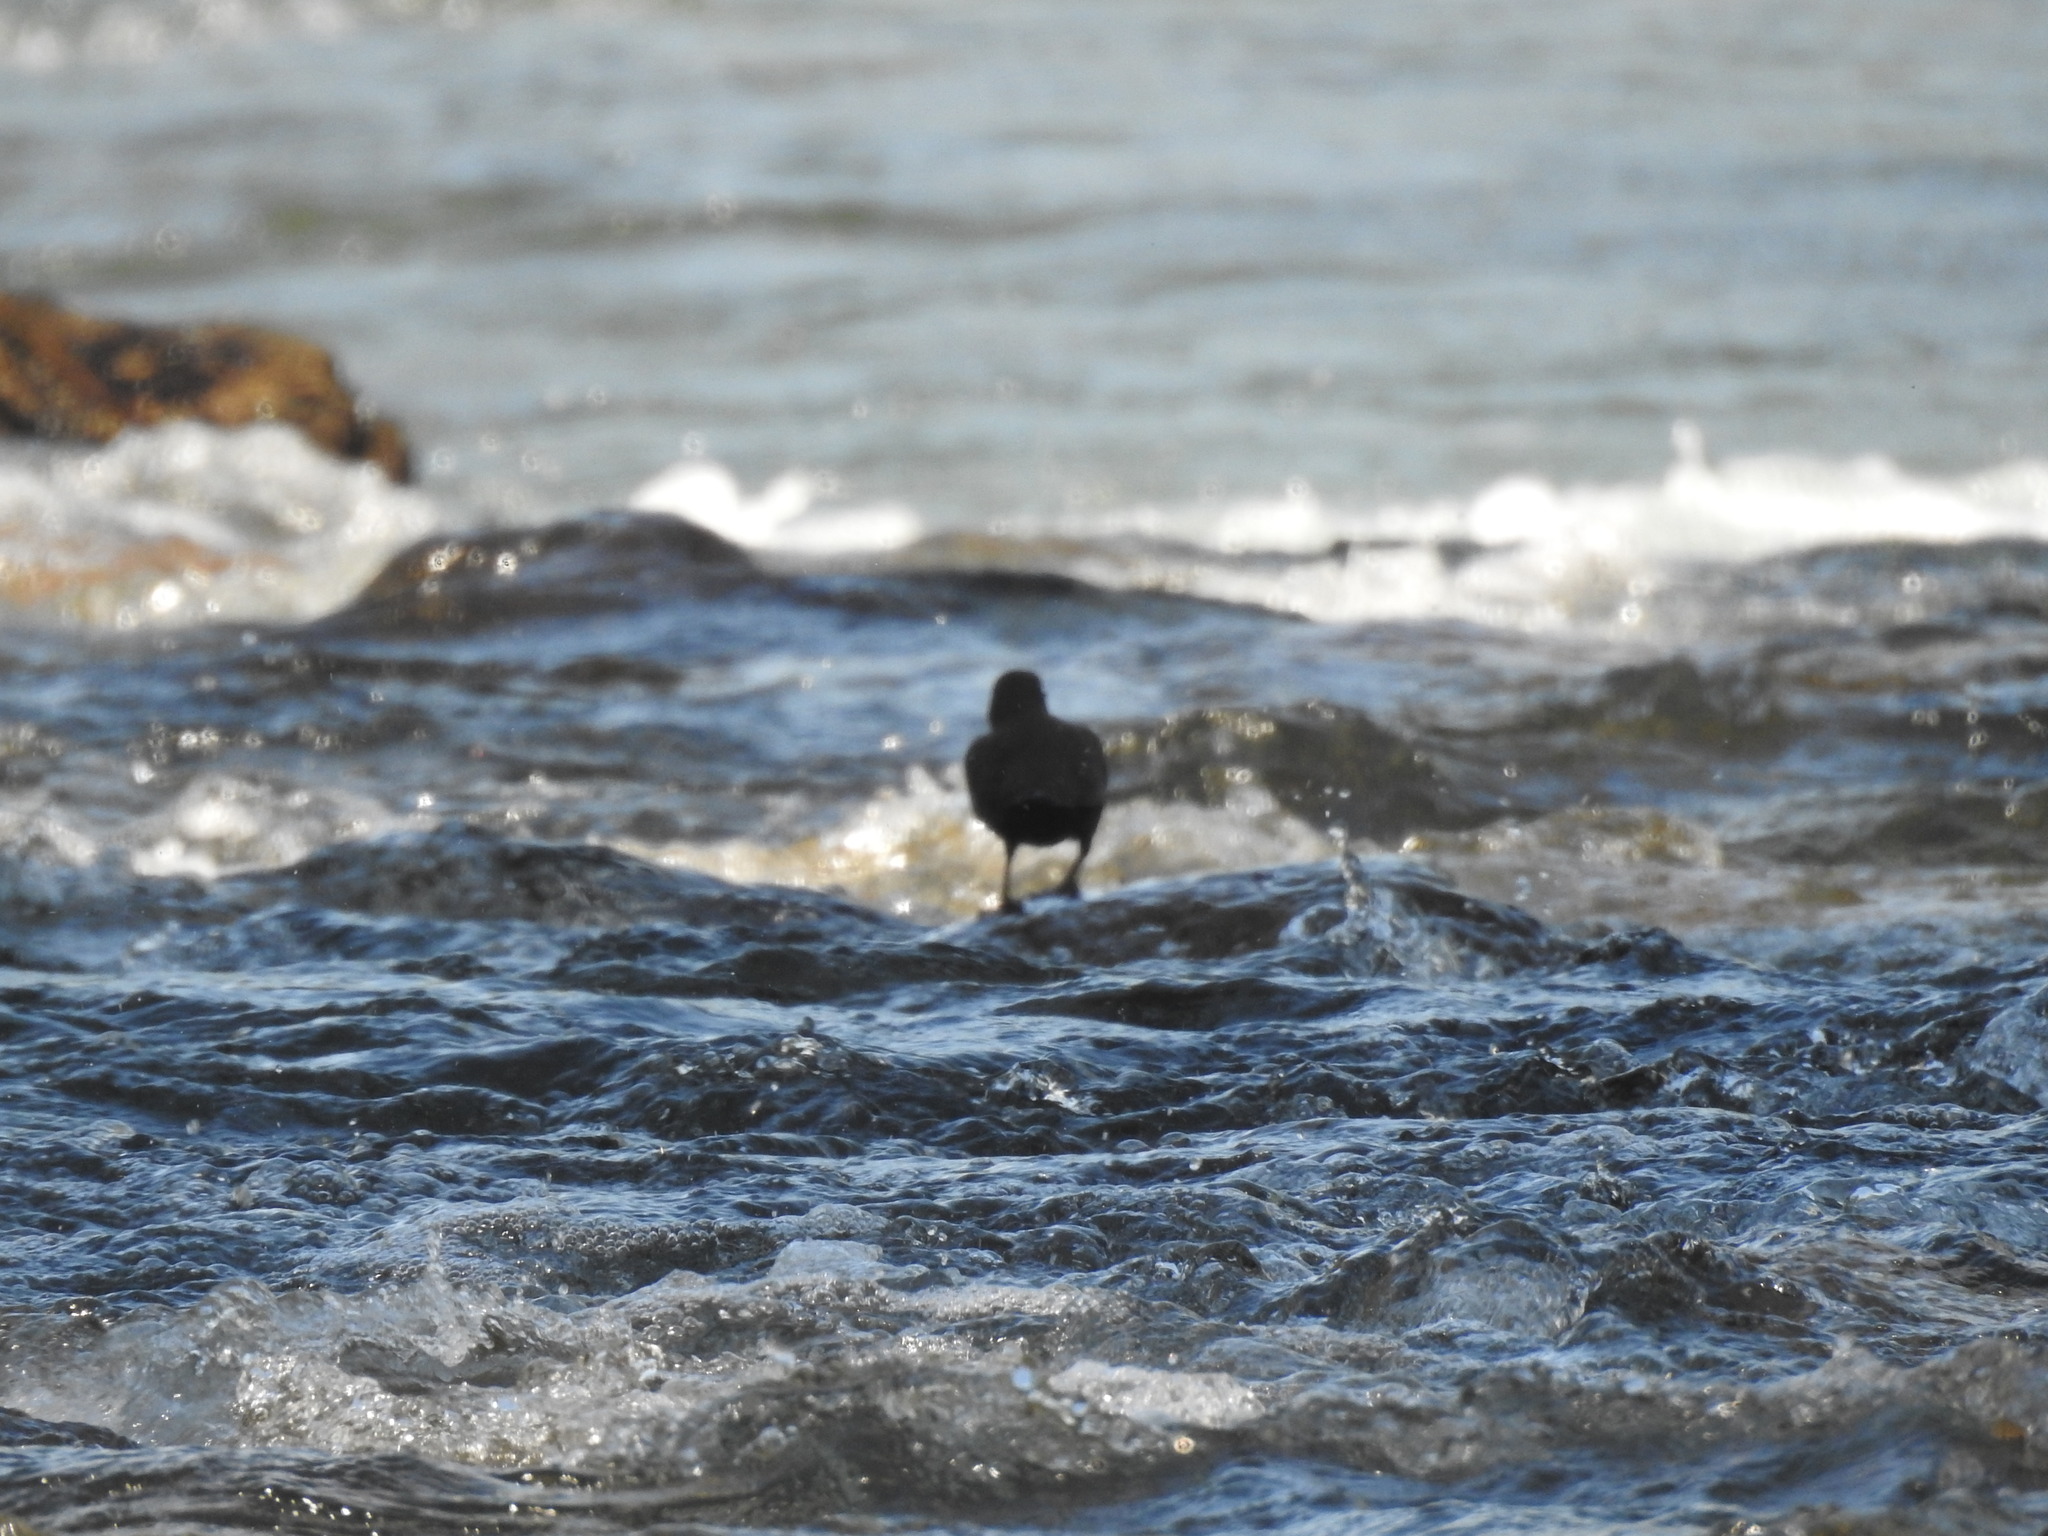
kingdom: Animalia
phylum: Chordata
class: Aves
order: Passeriformes
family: Cinclidae
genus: Cinclus
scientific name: Cinclus pallasii
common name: Brown dipper
